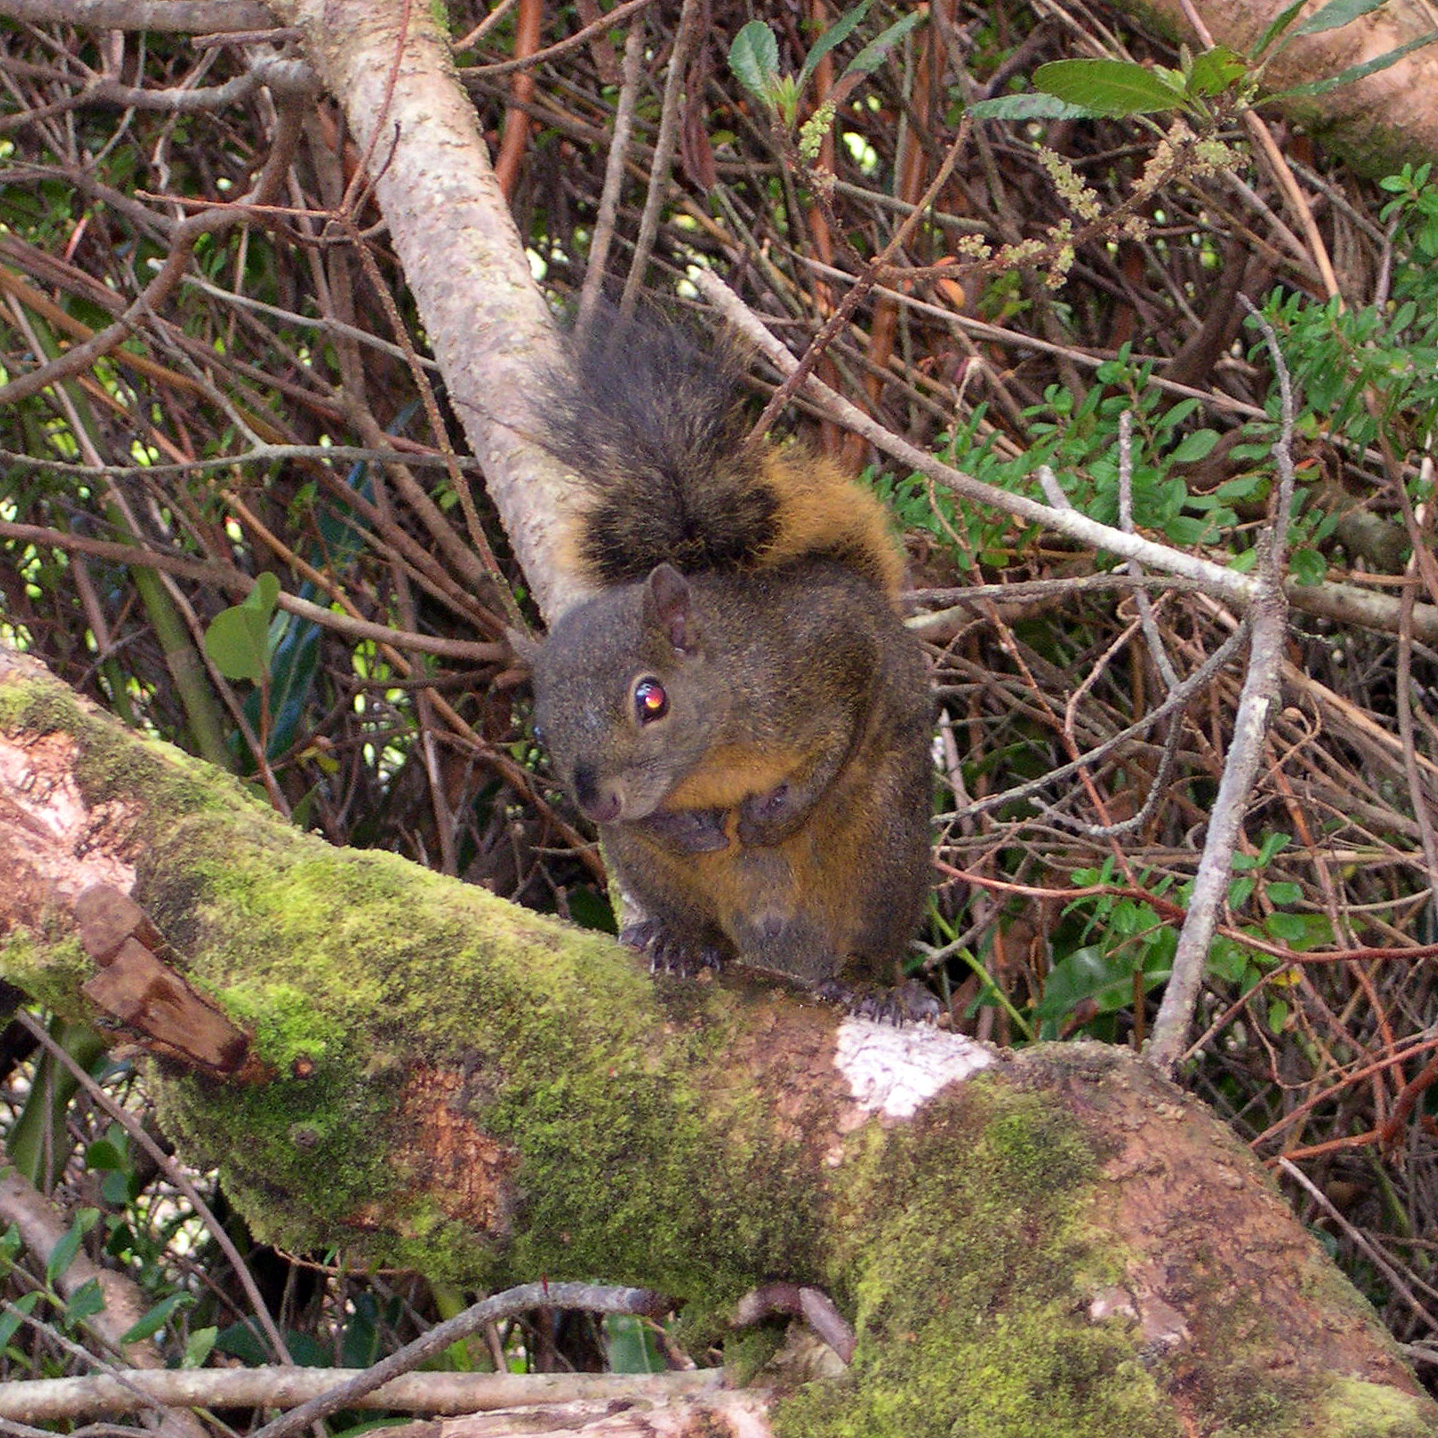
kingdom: Animalia
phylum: Chordata
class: Mammalia
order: Rodentia
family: Sciuridae
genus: Sciurus
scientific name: Sciurus granatensis
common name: Red-tailed squirrel
